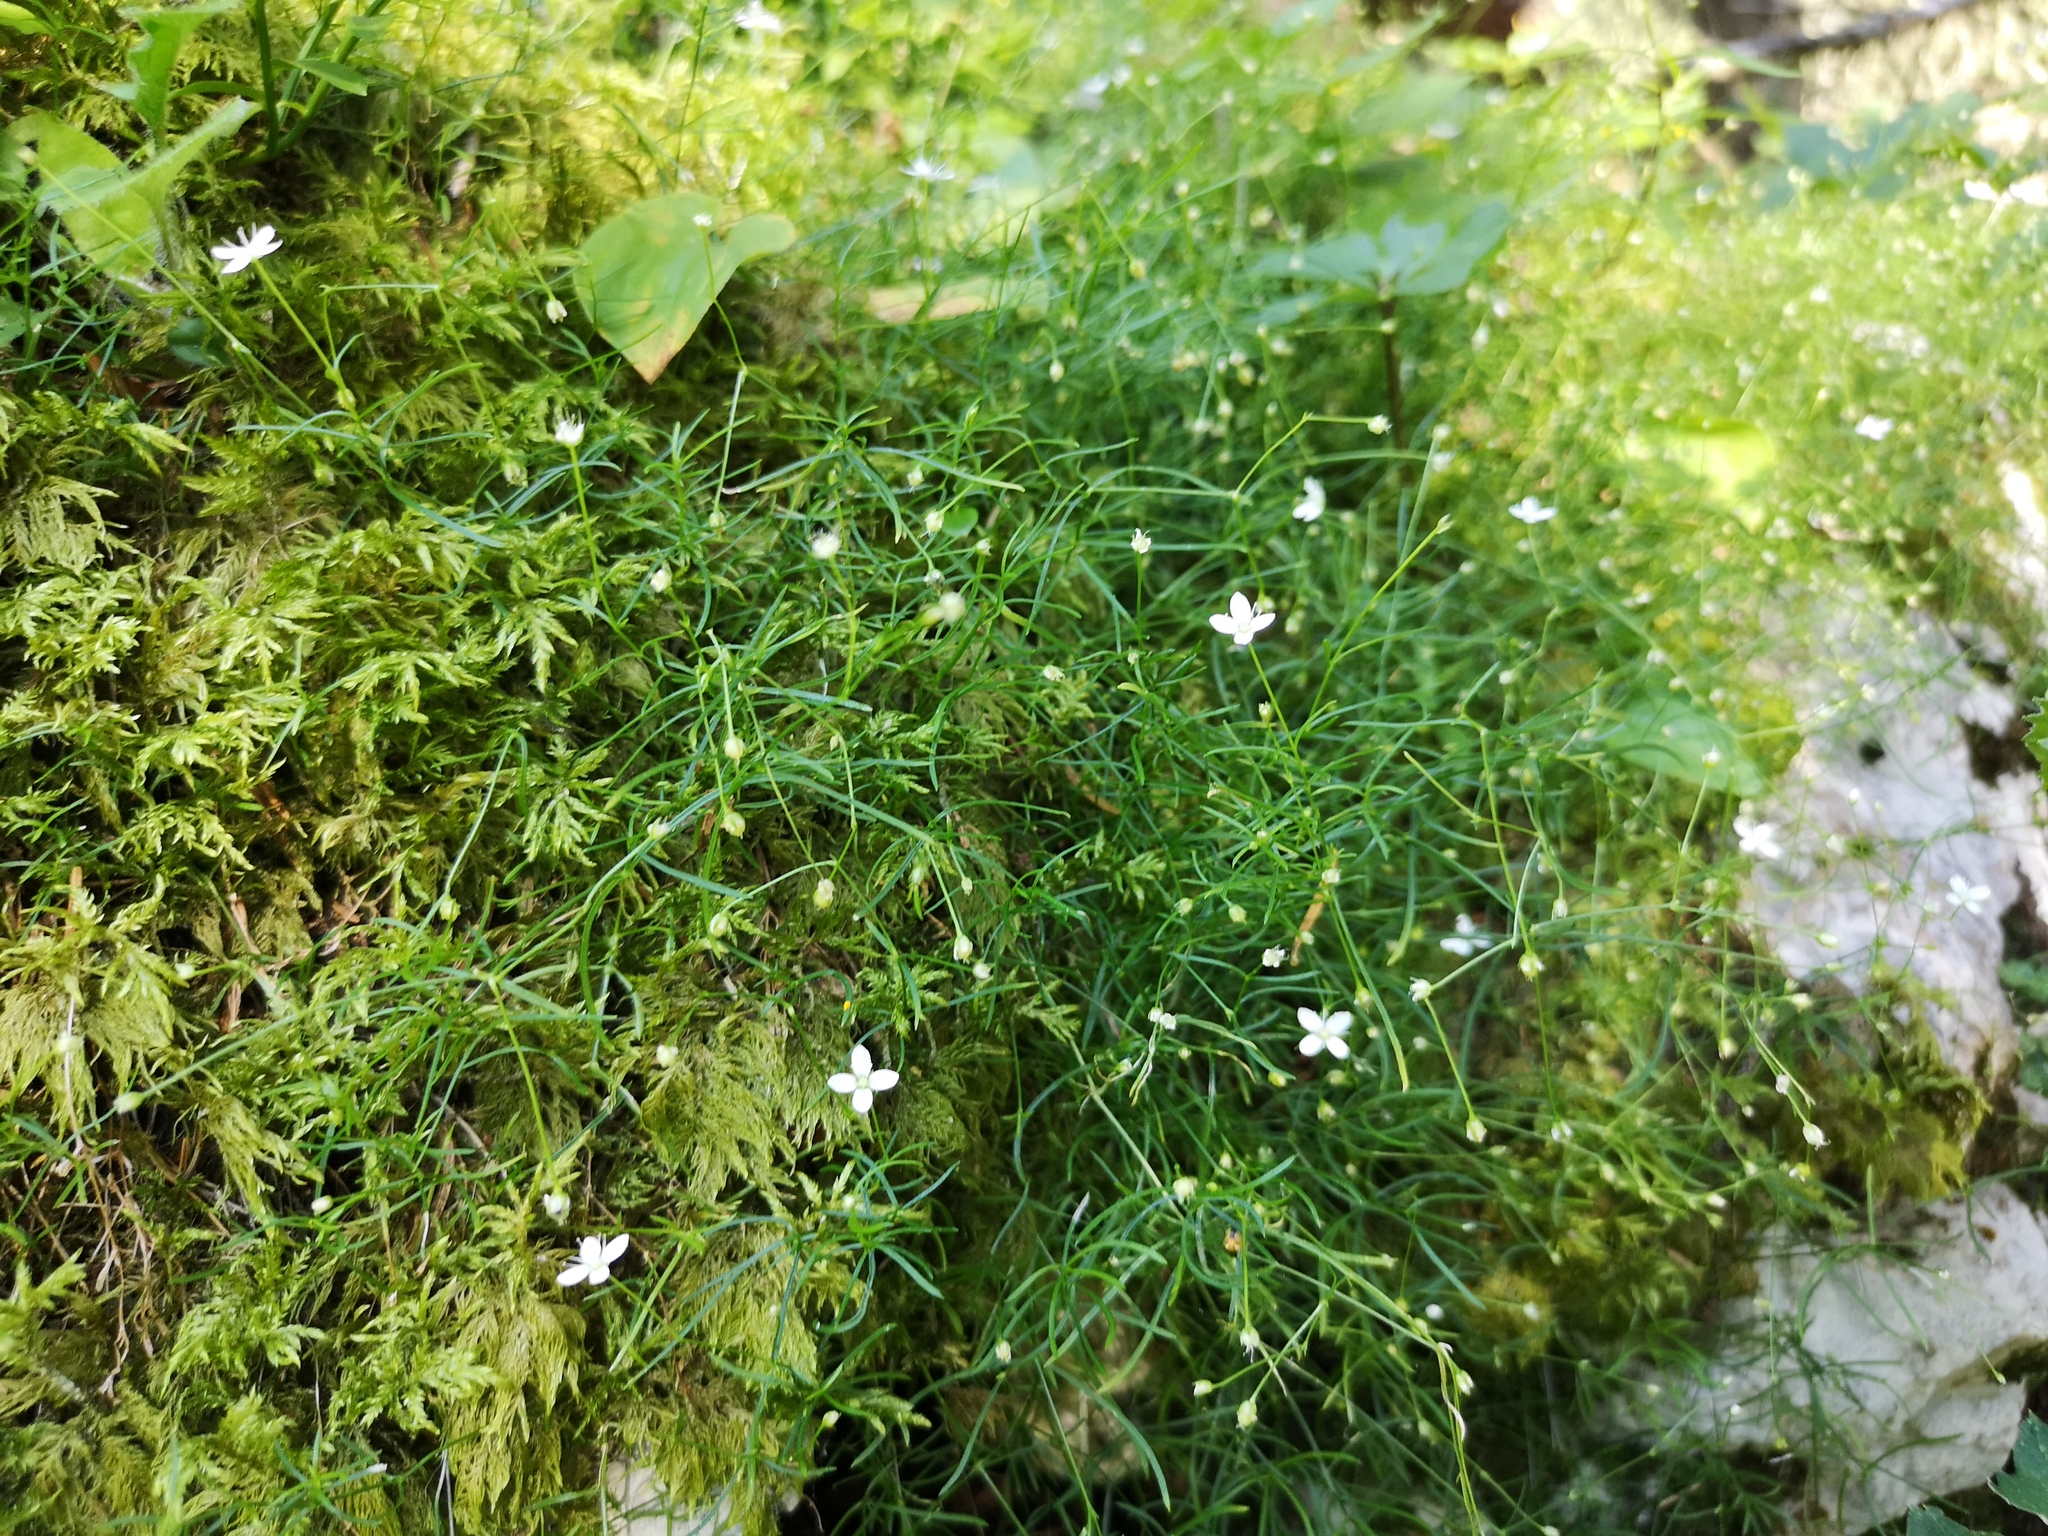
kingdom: Plantae
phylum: Tracheophyta
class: Magnoliopsida
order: Caryophyllales
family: Caryophyllaceae
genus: Moehringia
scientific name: Moehringia muscosa
